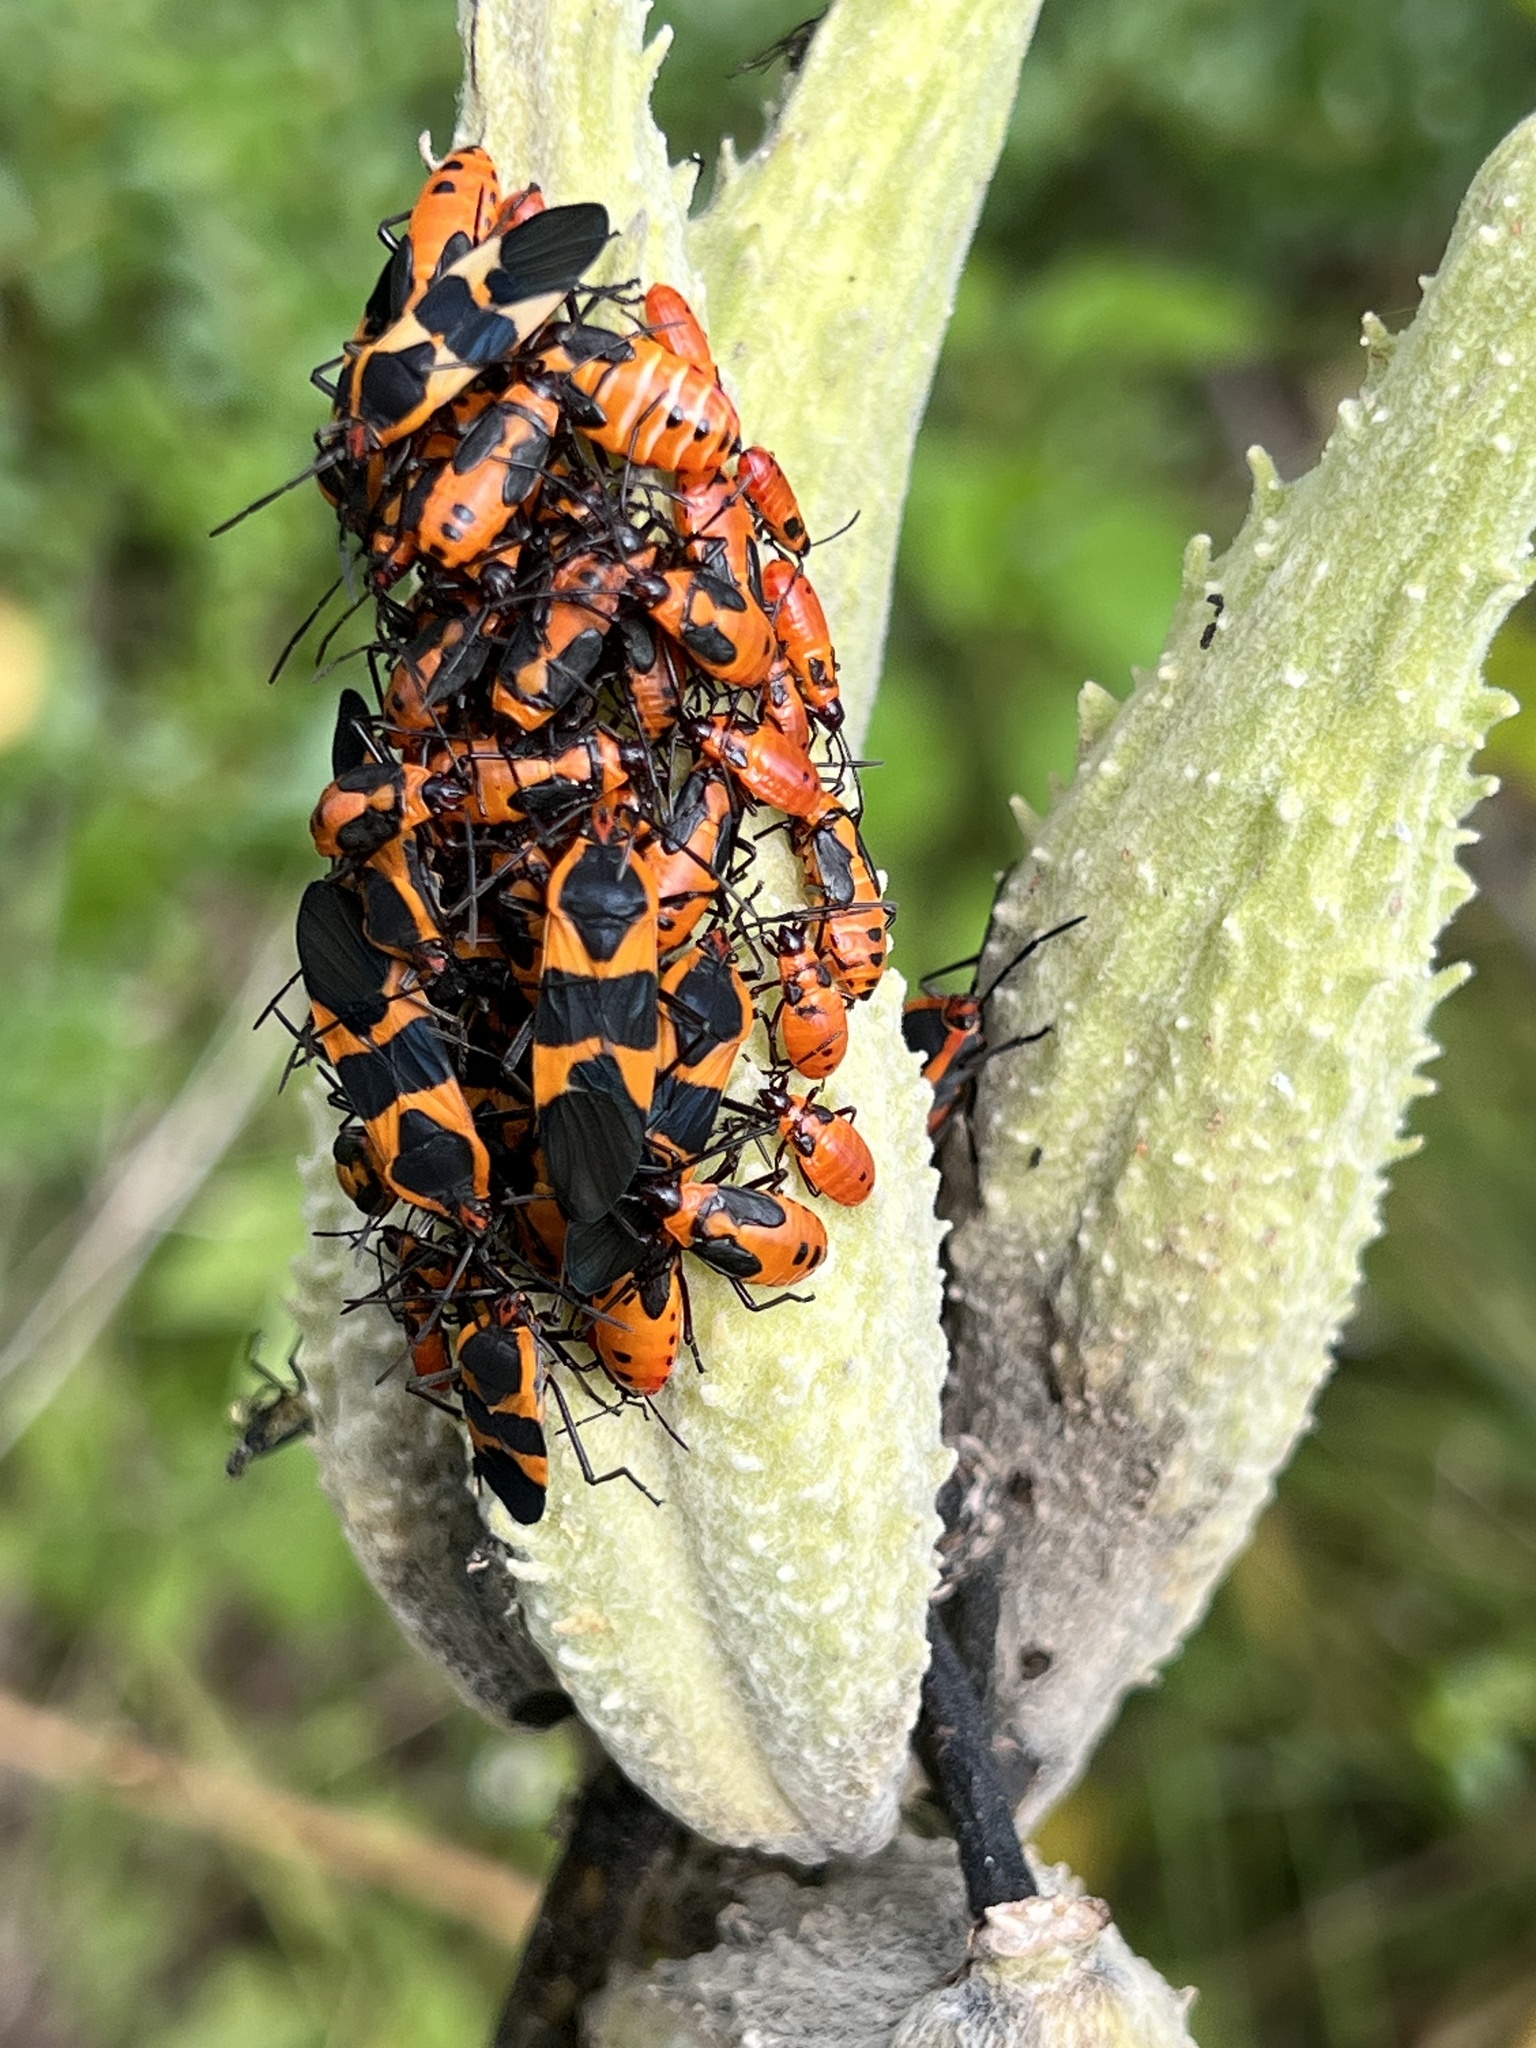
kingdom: Animalia
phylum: Arthropoda
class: Insecta
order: Hemiptera
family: Lygaeidae
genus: Oncopeltus
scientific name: Oncopeltus fasciatus
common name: Large milkweed bug
